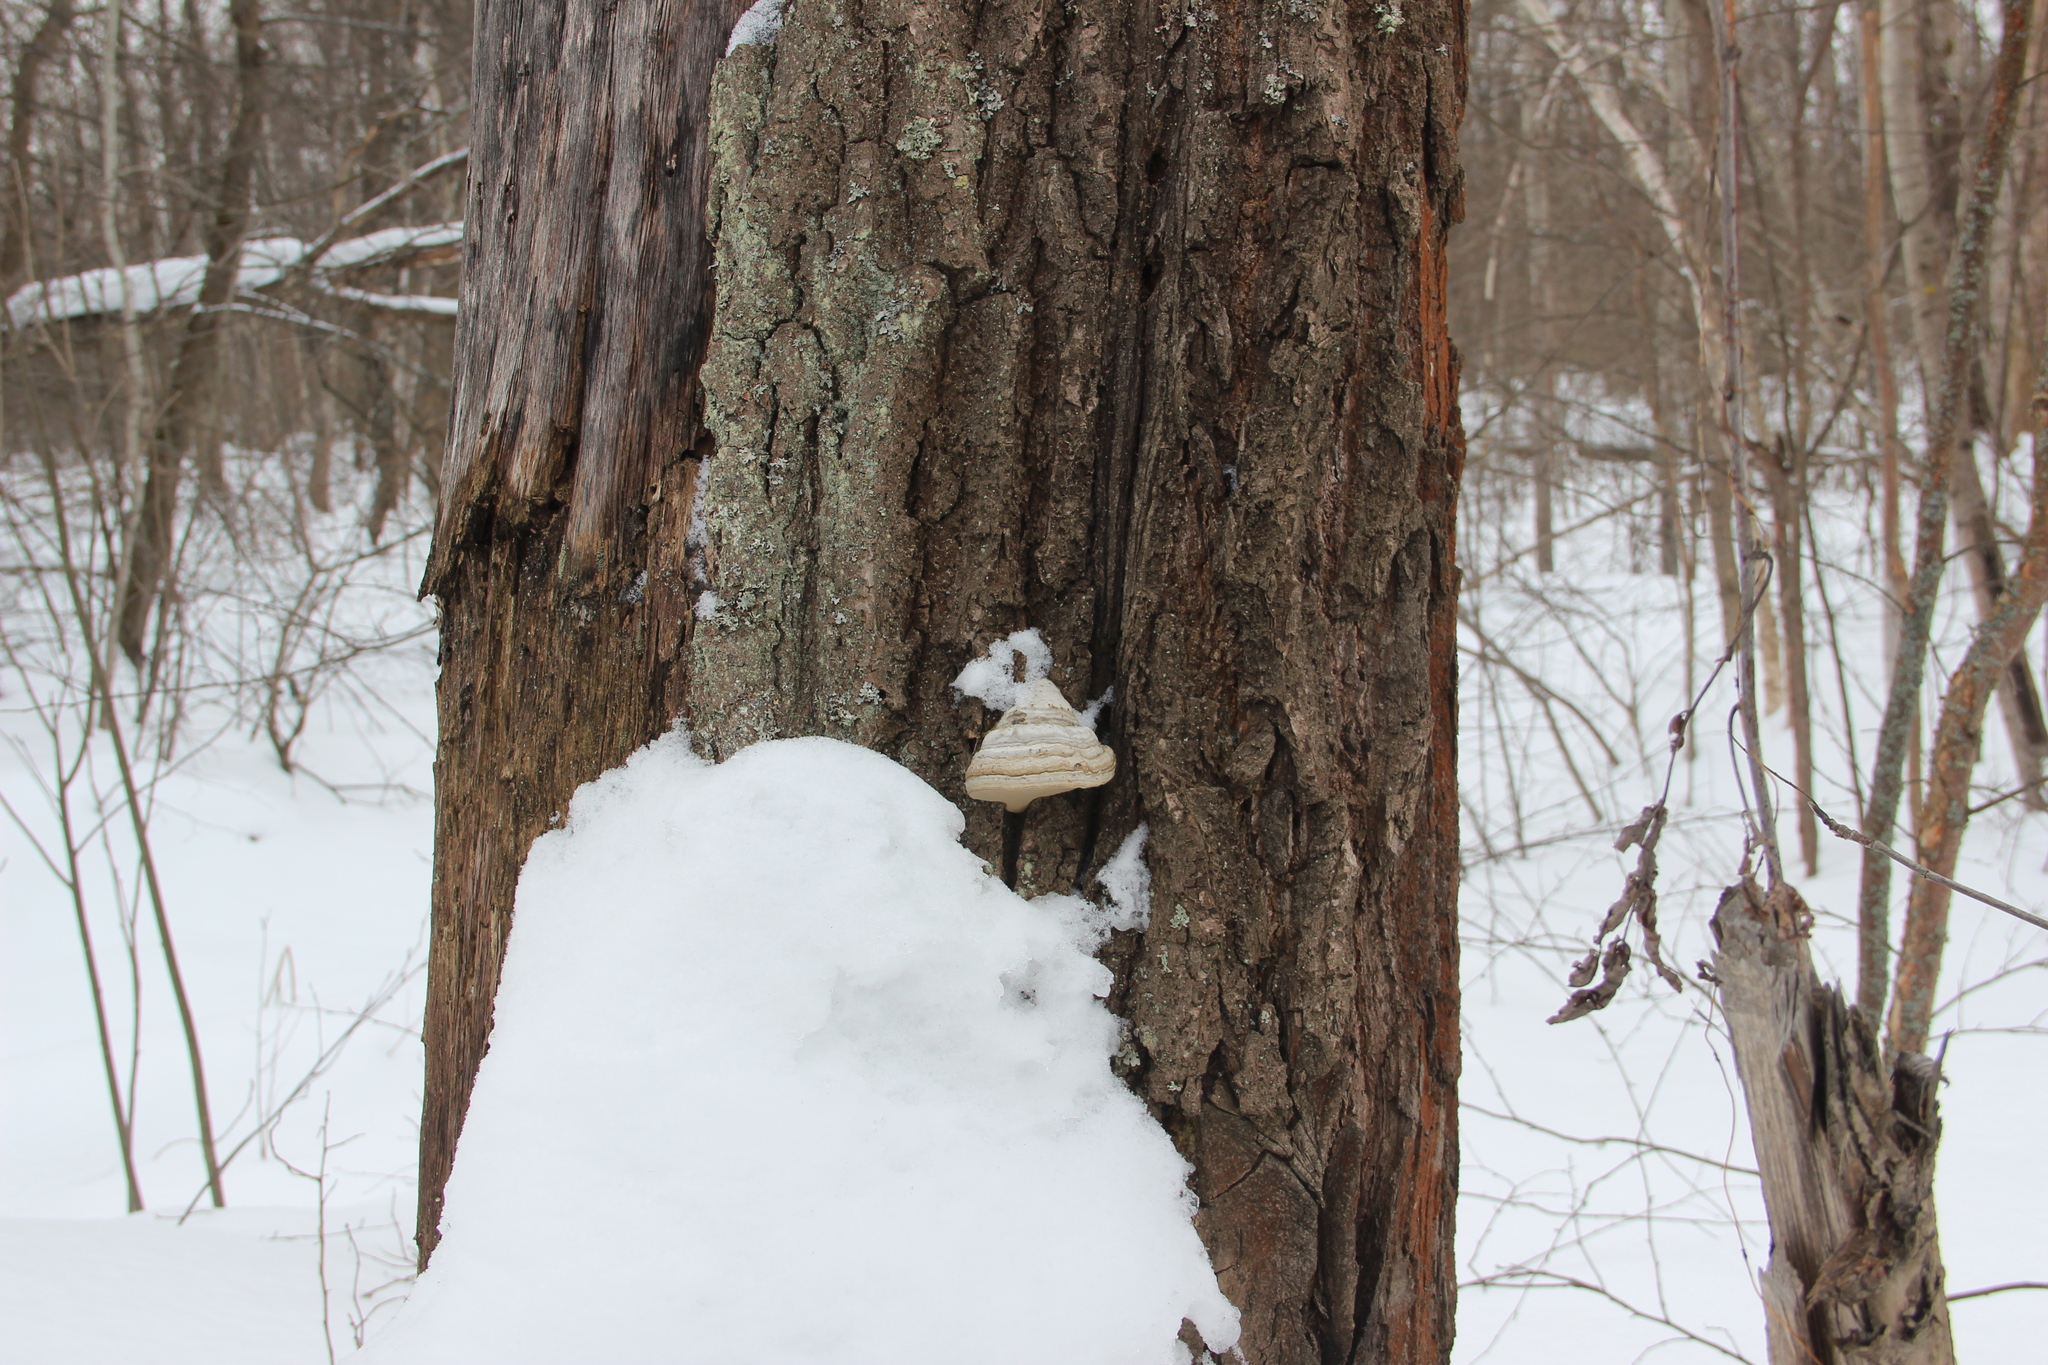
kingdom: Fungi
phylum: Basidiomycota
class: Agaricomycetes
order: Polyporales
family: Polyporaceae
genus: Fomes
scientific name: Fomes fomentarius
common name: Hoof fungus
